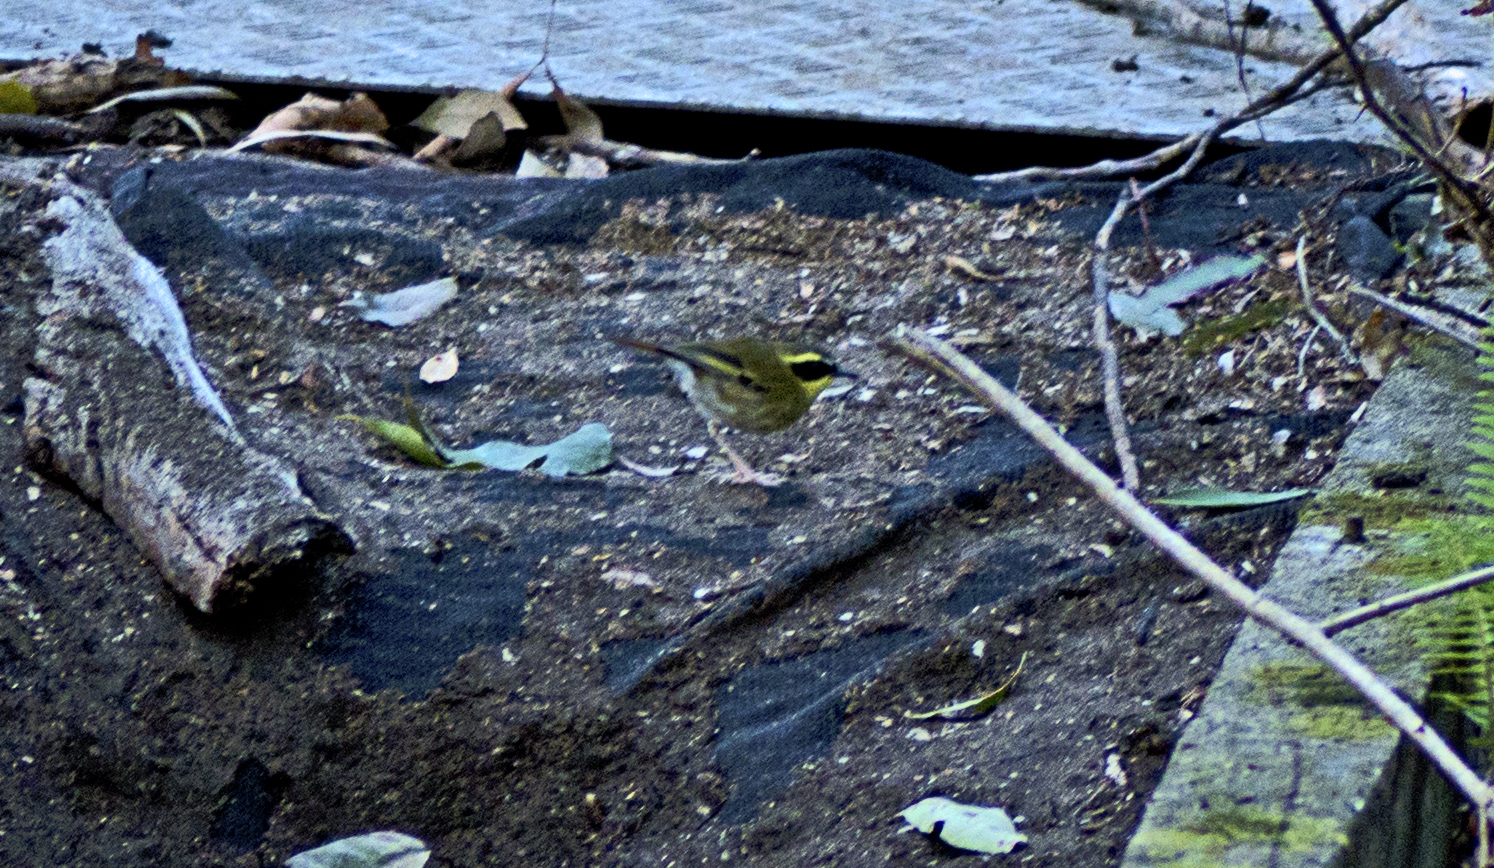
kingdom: Animalia
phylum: Chordata
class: Aves
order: Passeriformes
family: Acanthizidae
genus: Sericornis
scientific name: Sericornis citreogularis
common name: Yellow-throated scrubwren
